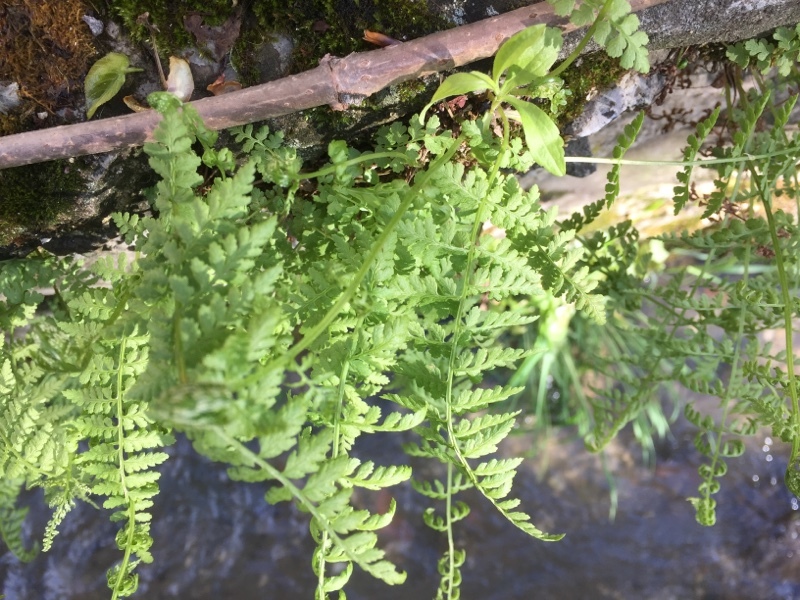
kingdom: Plantae
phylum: Tracheophyta
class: Polypodiopsida
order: Polypodiales
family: Cystopteridaceae
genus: Cystopteris
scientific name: Cystopteris fragilis
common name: Brittle bladder fern
